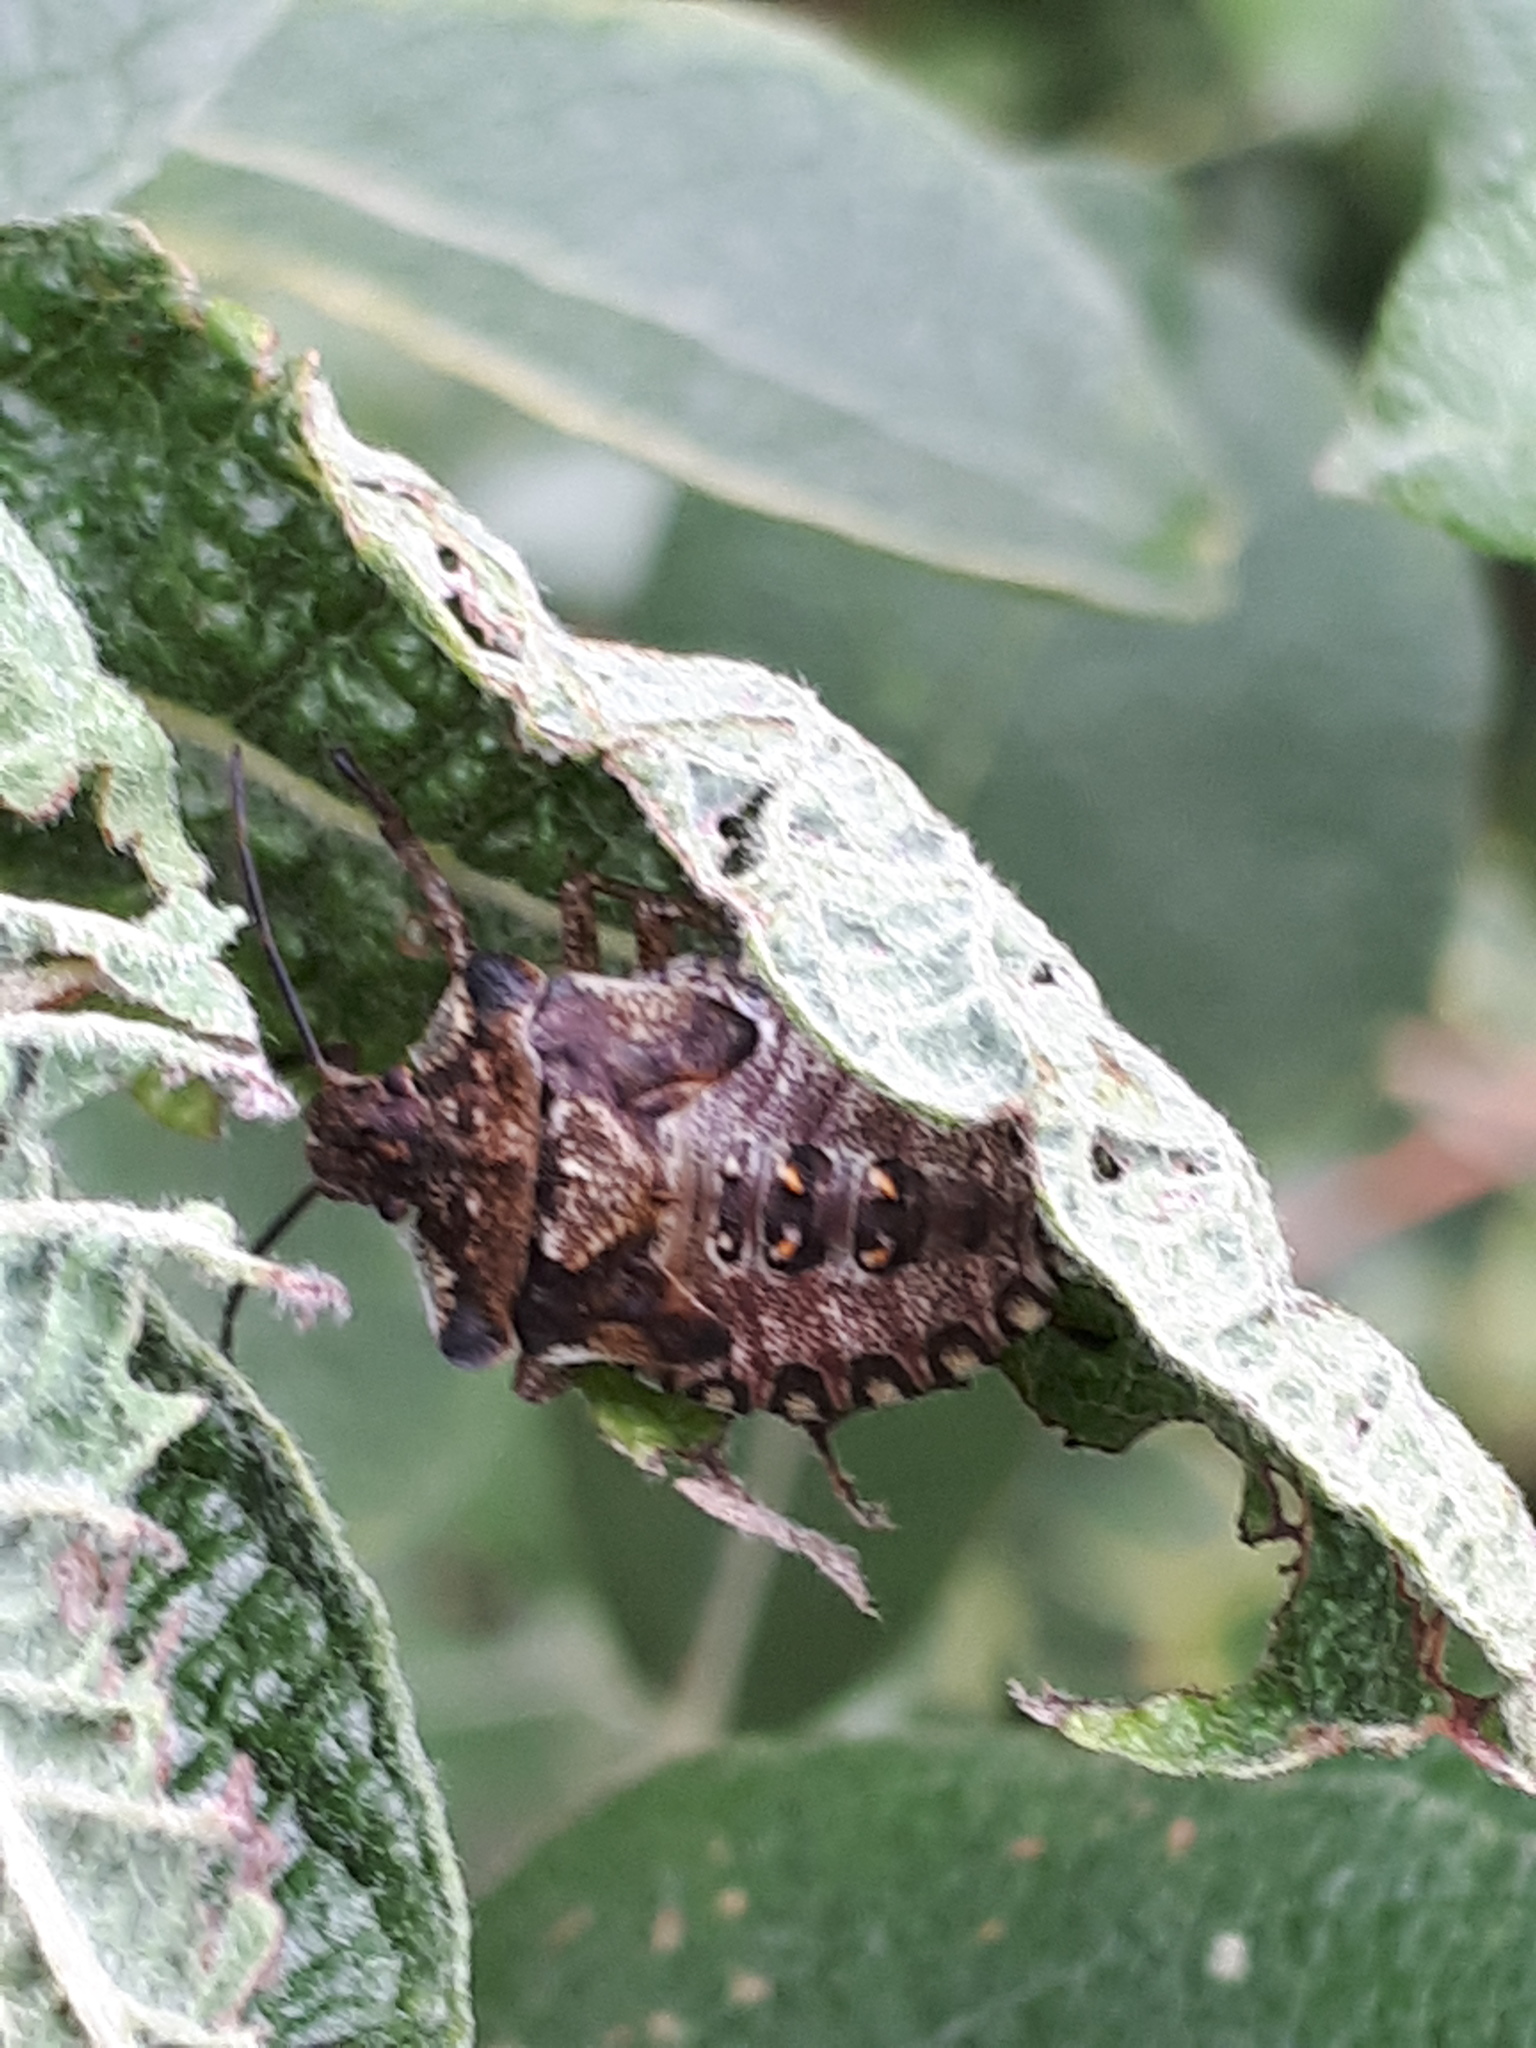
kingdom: Animalia
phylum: Arthropoda
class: Insecta
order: Hemiptera
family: Pentatomidae
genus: Pentatoma
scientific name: Pentatoma rufipes
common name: Forest bug
